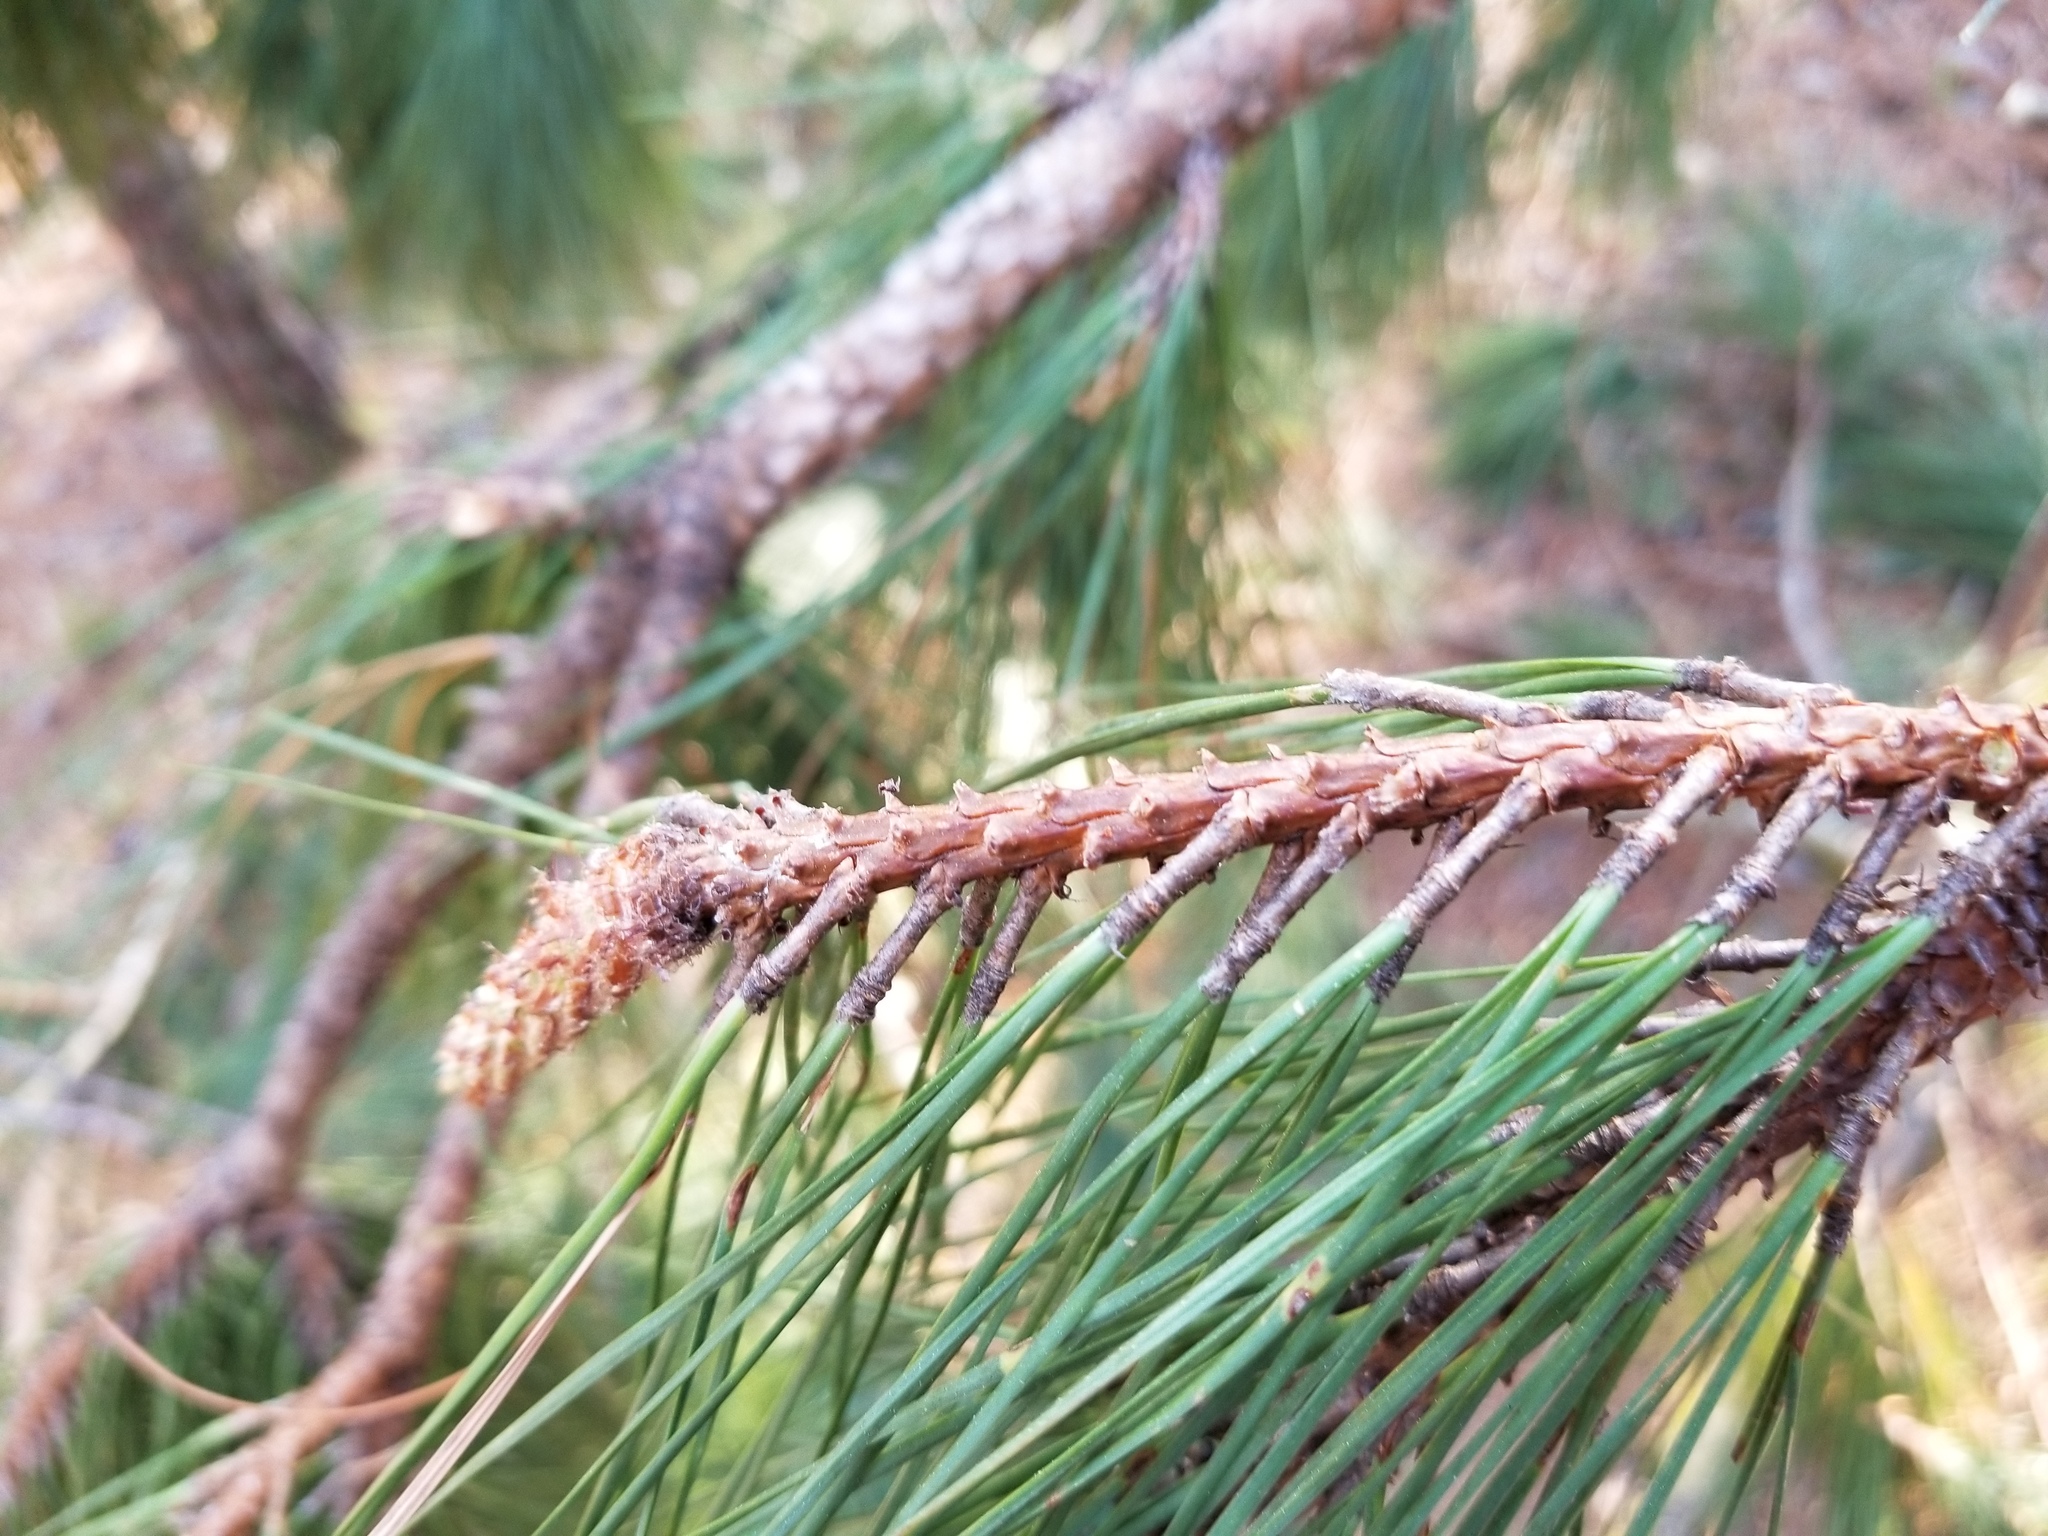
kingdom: Plantae
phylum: Tracheophyta
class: Pinopsida
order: Pinales
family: Pinaceae
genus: Pinus
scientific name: Pinus taeda
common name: Loblolly pine
